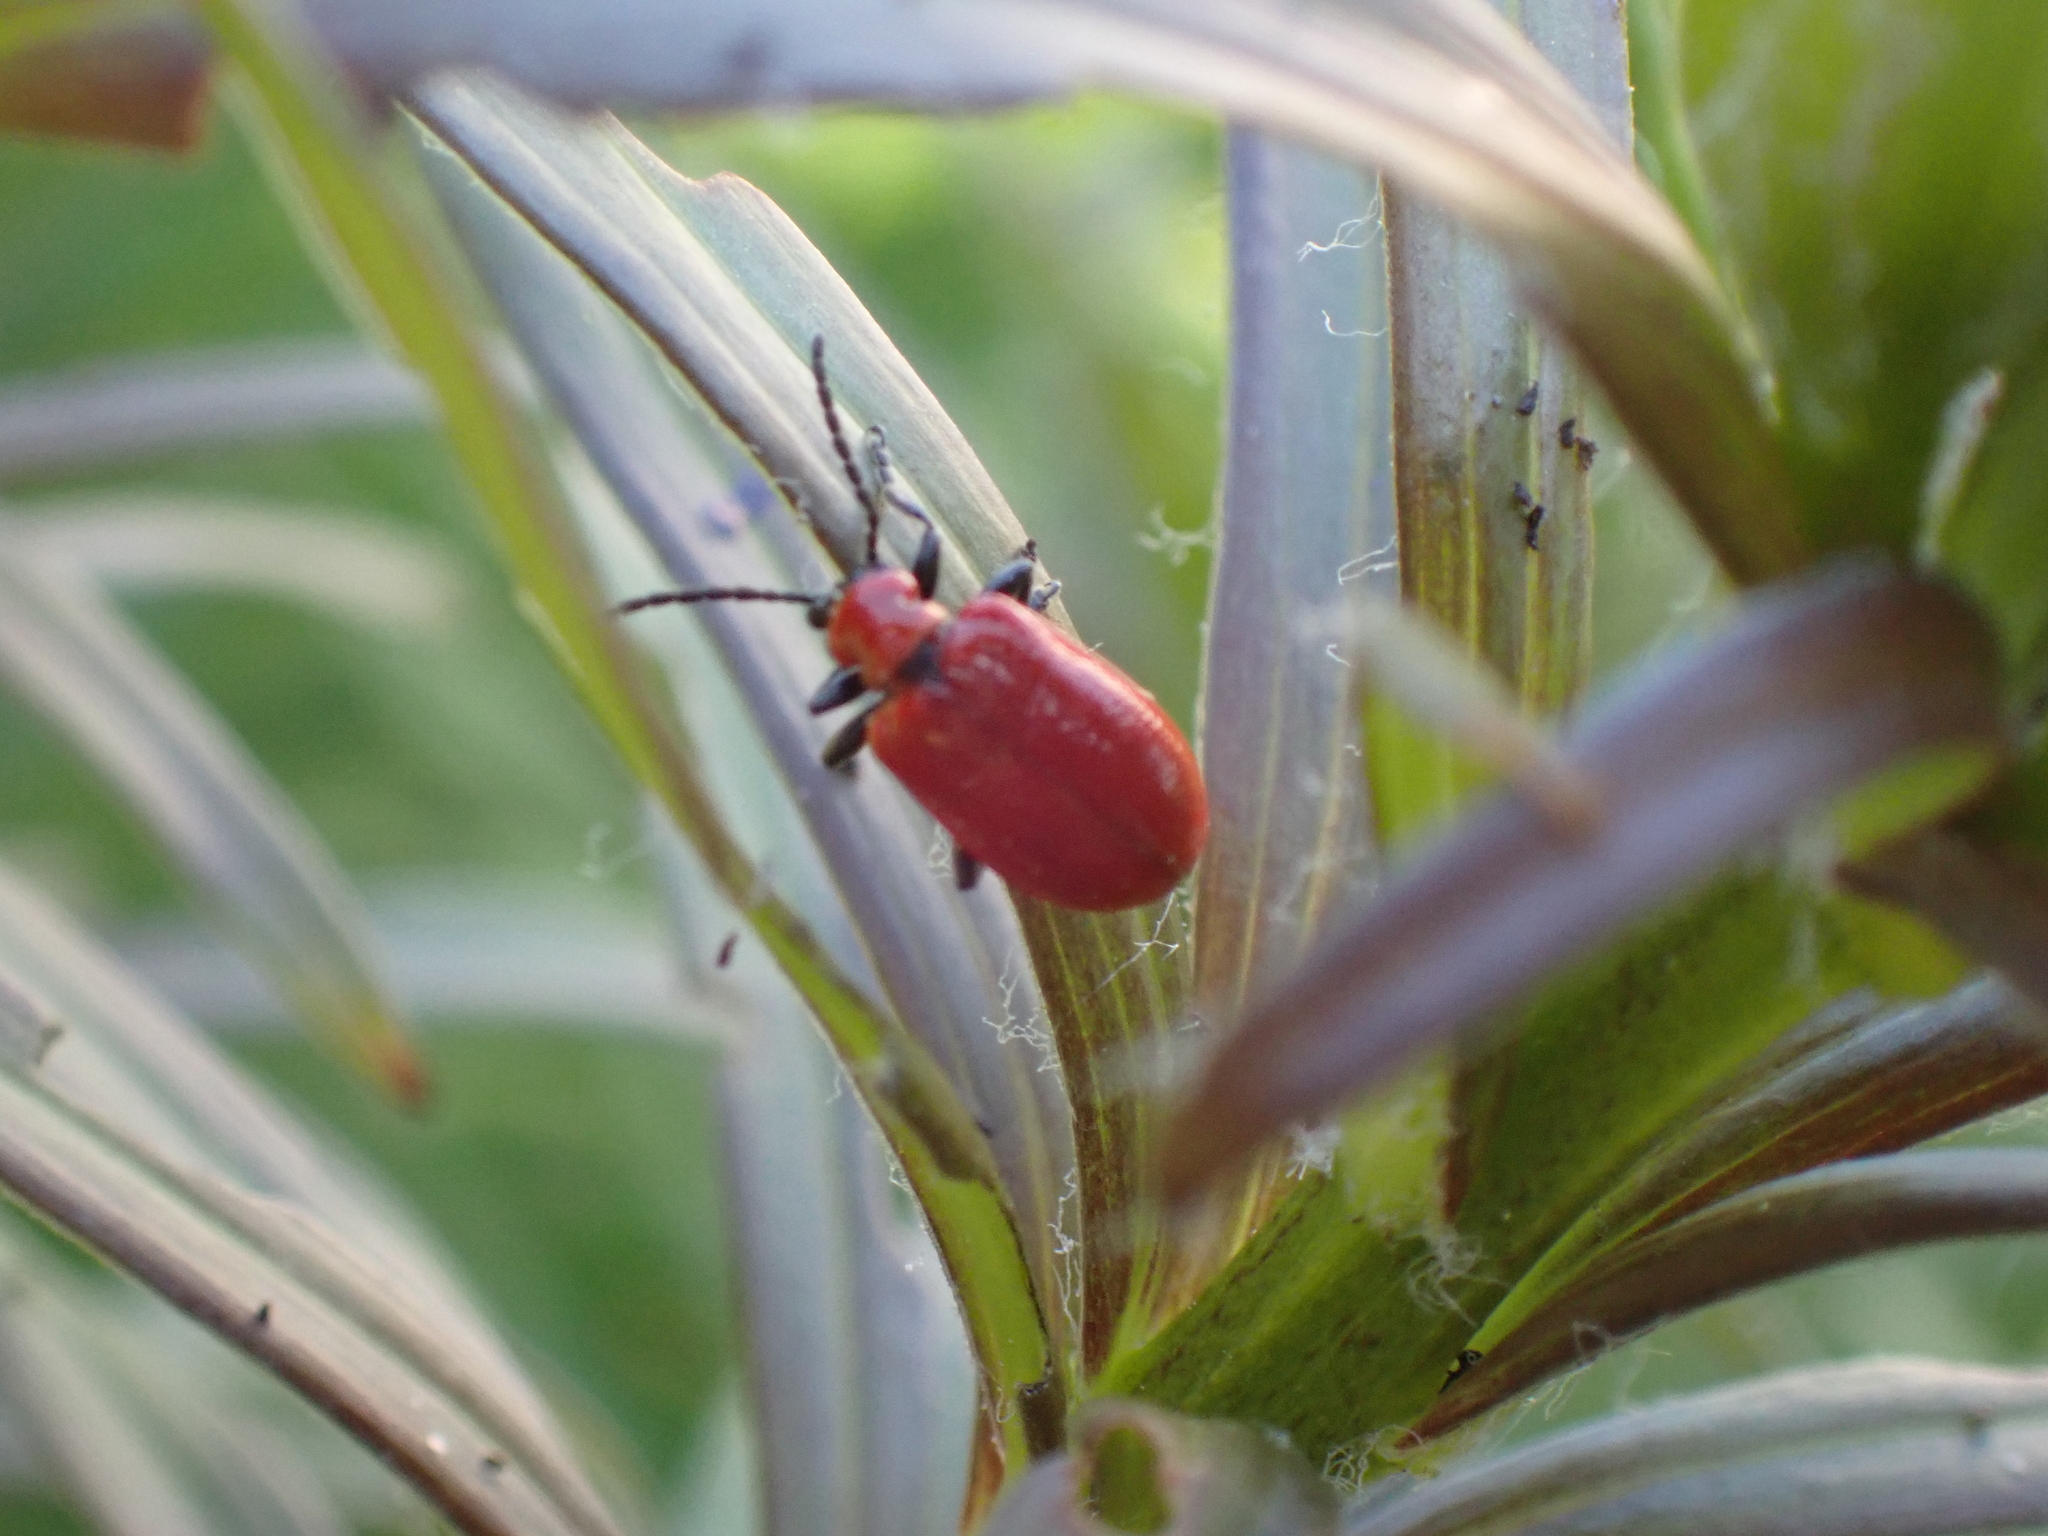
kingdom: Animalia
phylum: Arthropoda
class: Insecta
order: Coleoptera
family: Chrysomelidae
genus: Lilioceris
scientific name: Lilioceris lilii
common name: Lily beetle
